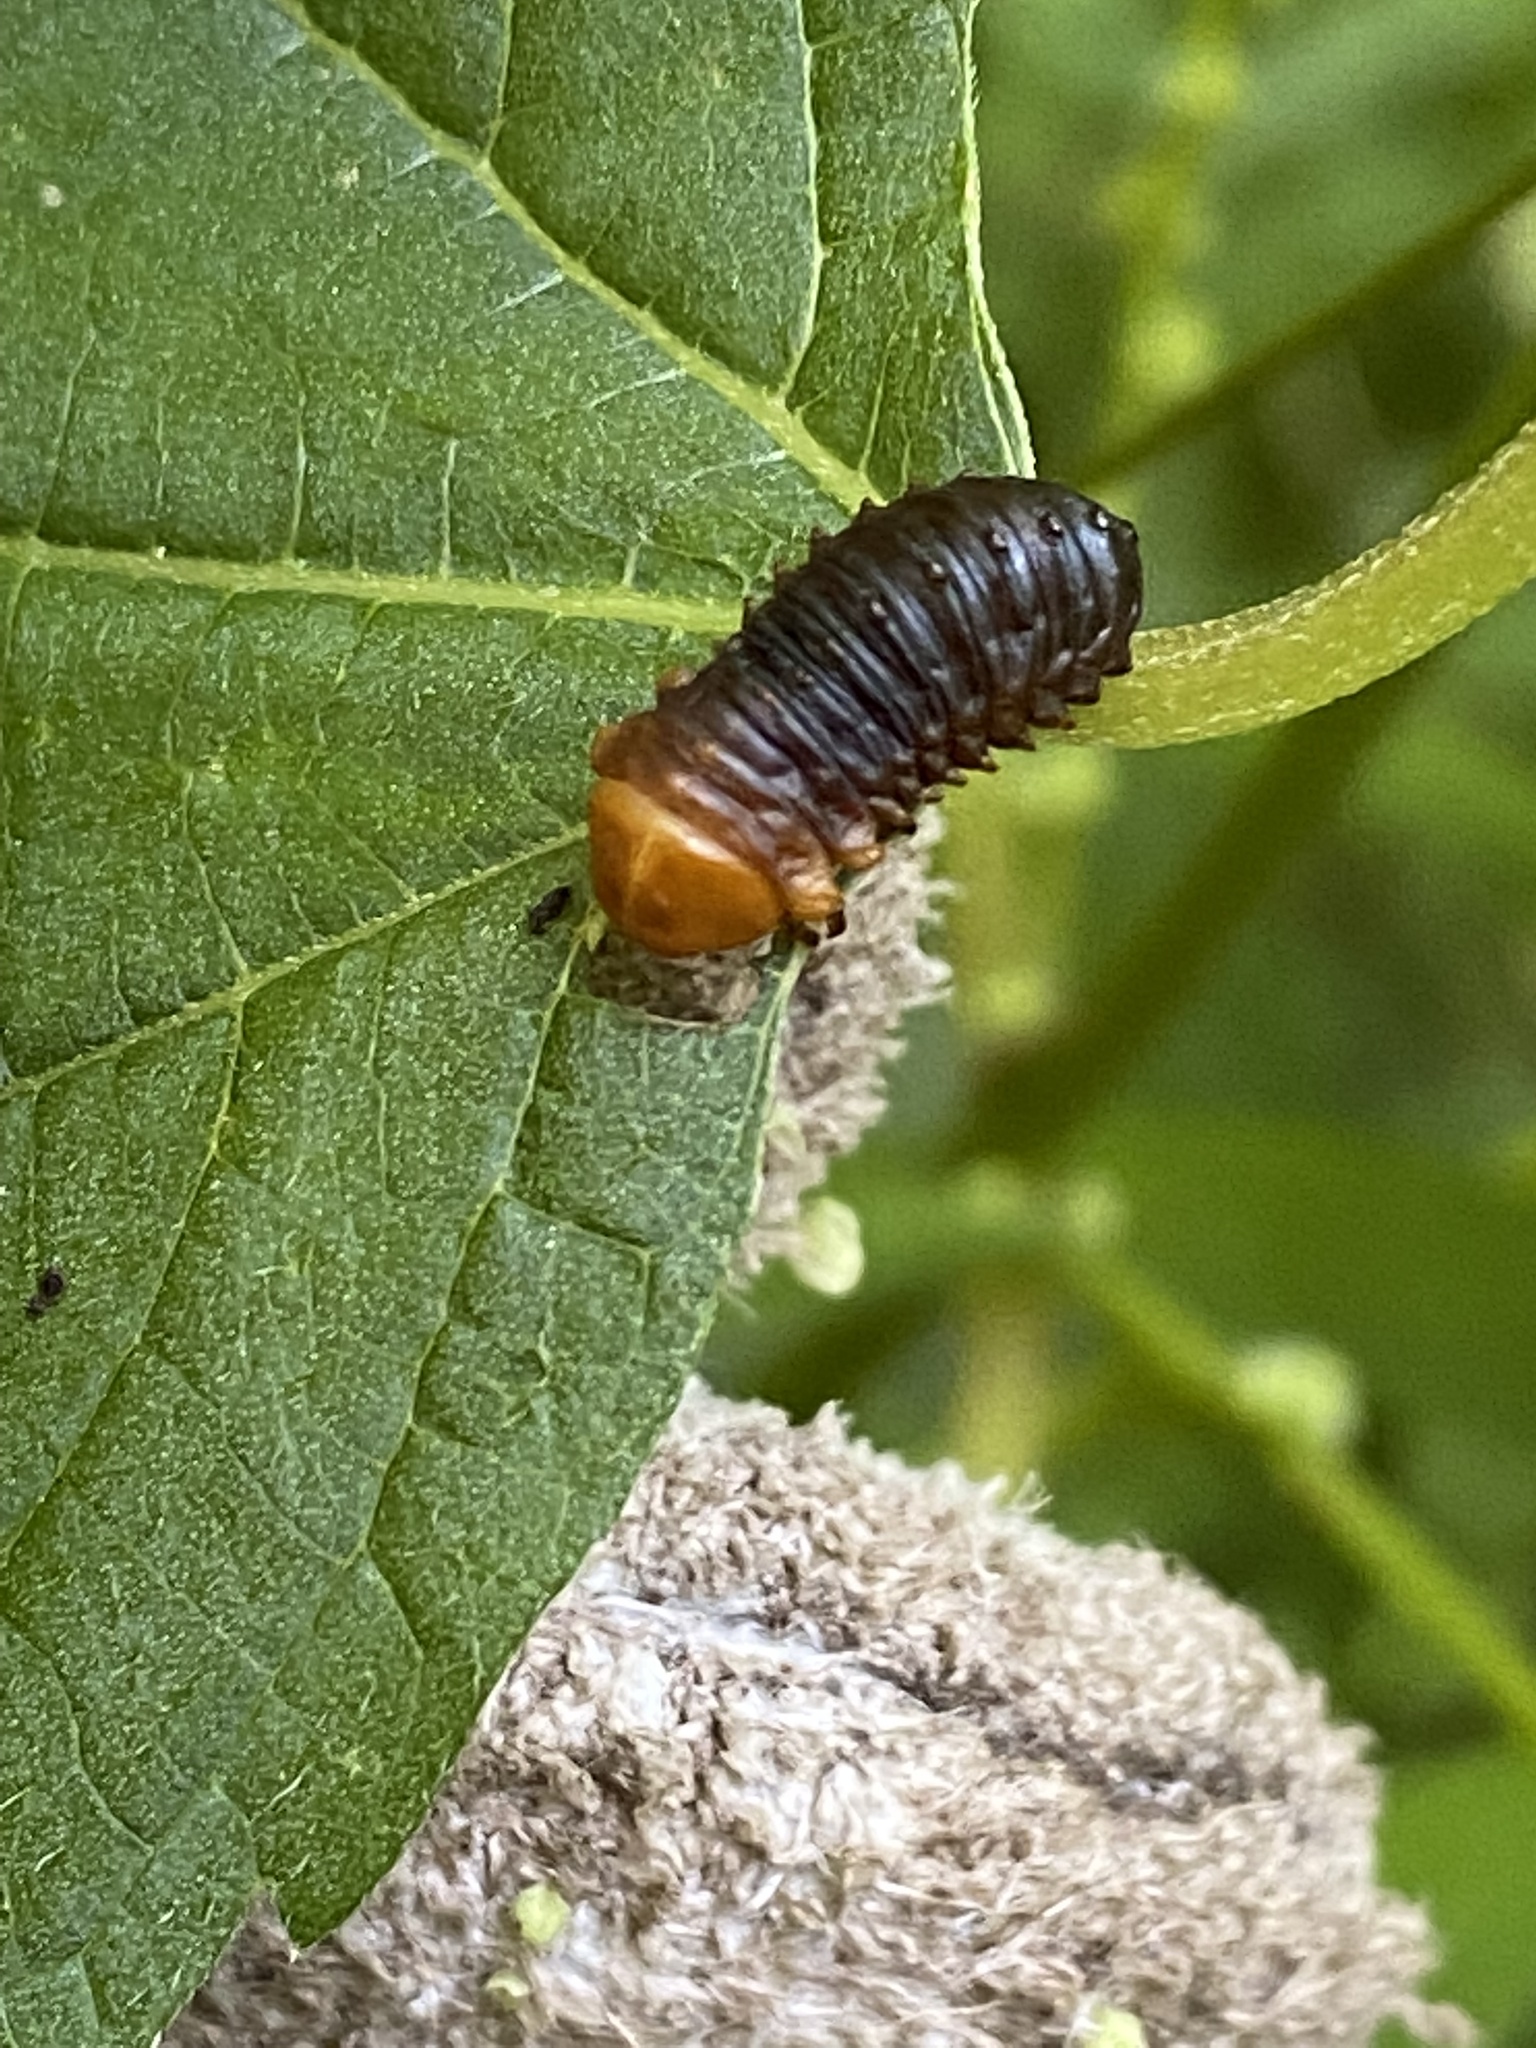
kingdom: Animalia
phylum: Arthropoda
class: Insecta
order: Coleoptera
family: Chrysomelidae
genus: Monocesta
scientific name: Monocesta coryli
